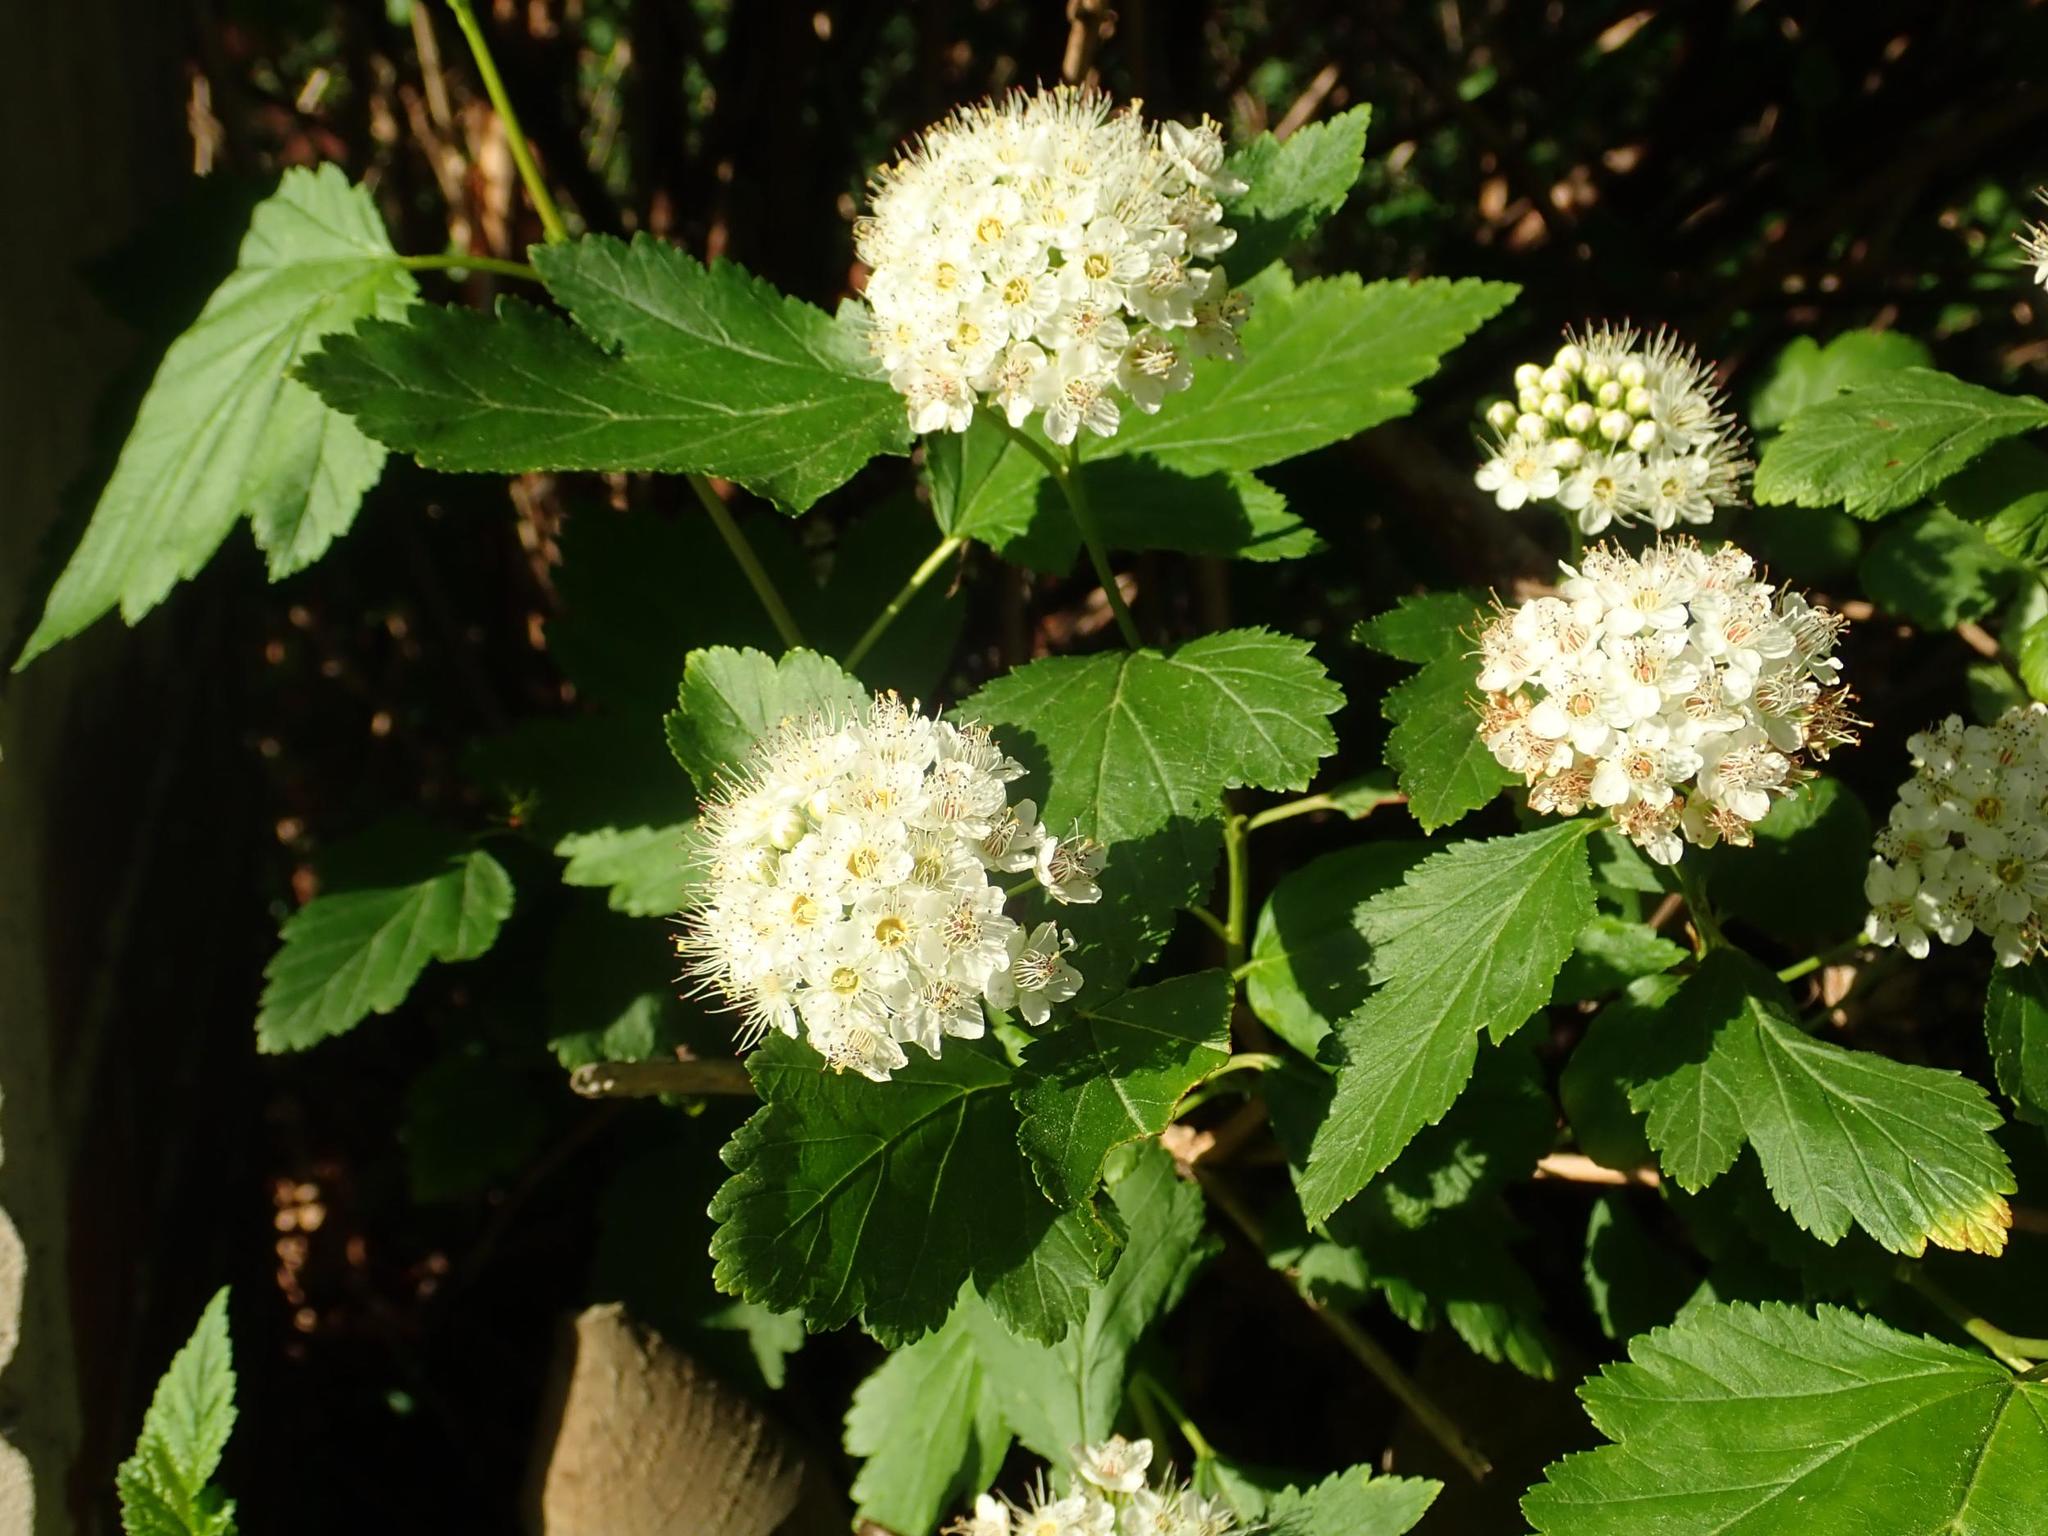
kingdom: Plantae
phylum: Tracheophyta
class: Magnoliopsida
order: Rosales
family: Rosaceae
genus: Physocarpus
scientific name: Physocarpus opulifolius
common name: Ninebark
